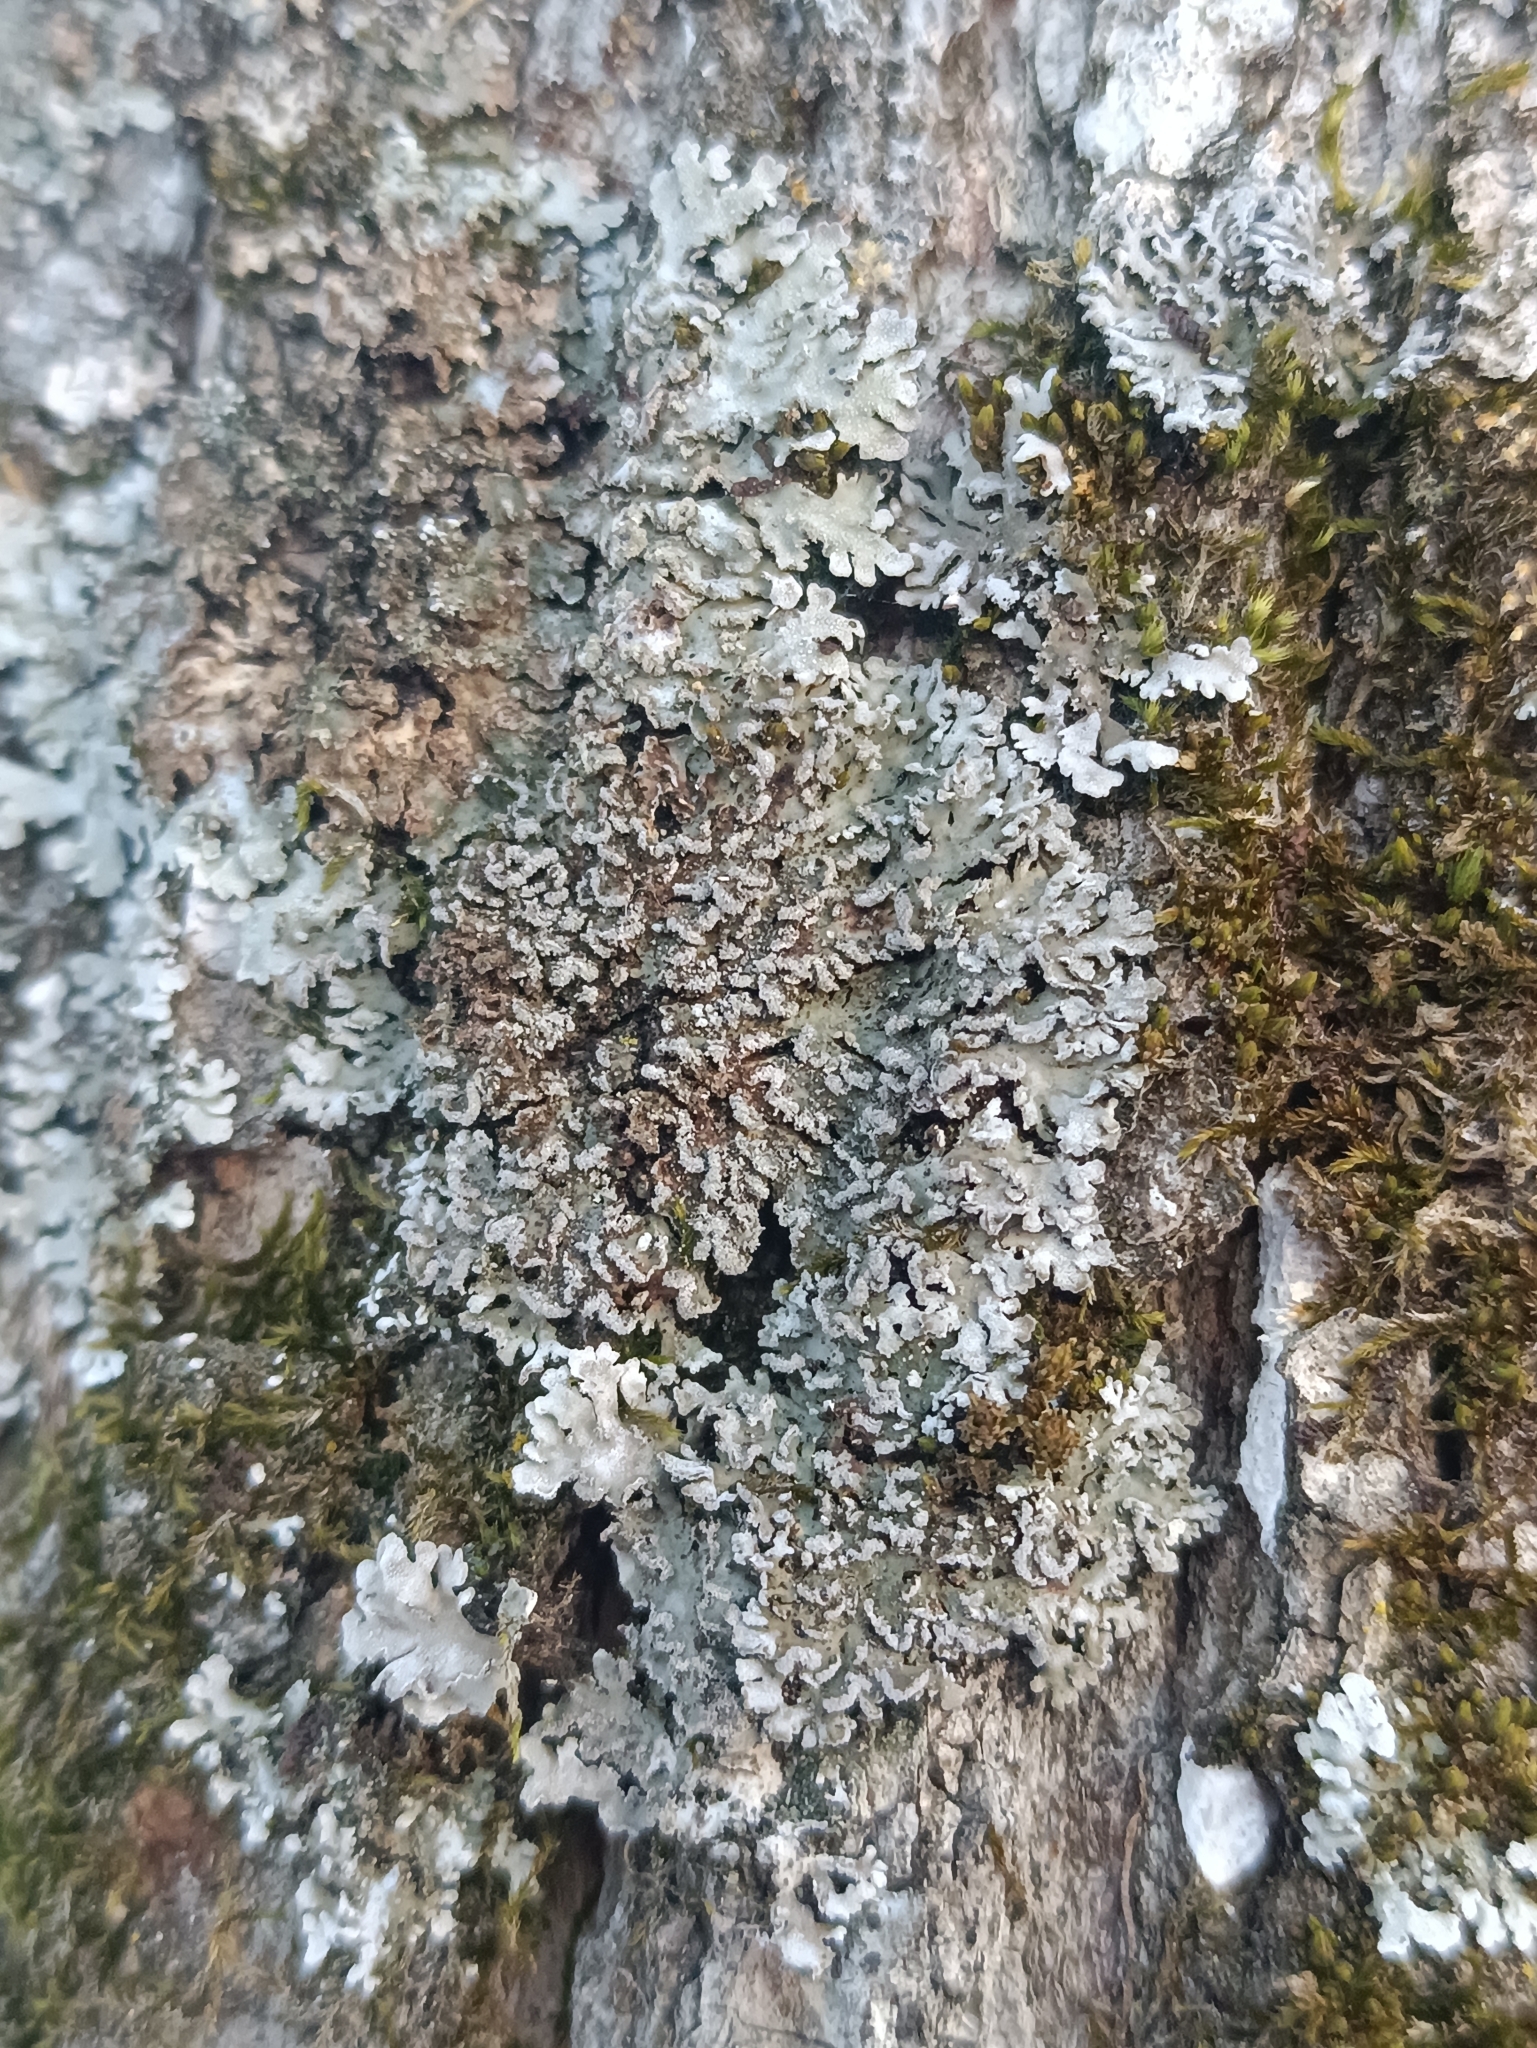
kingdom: Fungi
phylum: Ascomycota
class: Lecanoromycetes
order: Caliciales
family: Physciaceae
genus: Physconia
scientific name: Physconia perisidiosa
